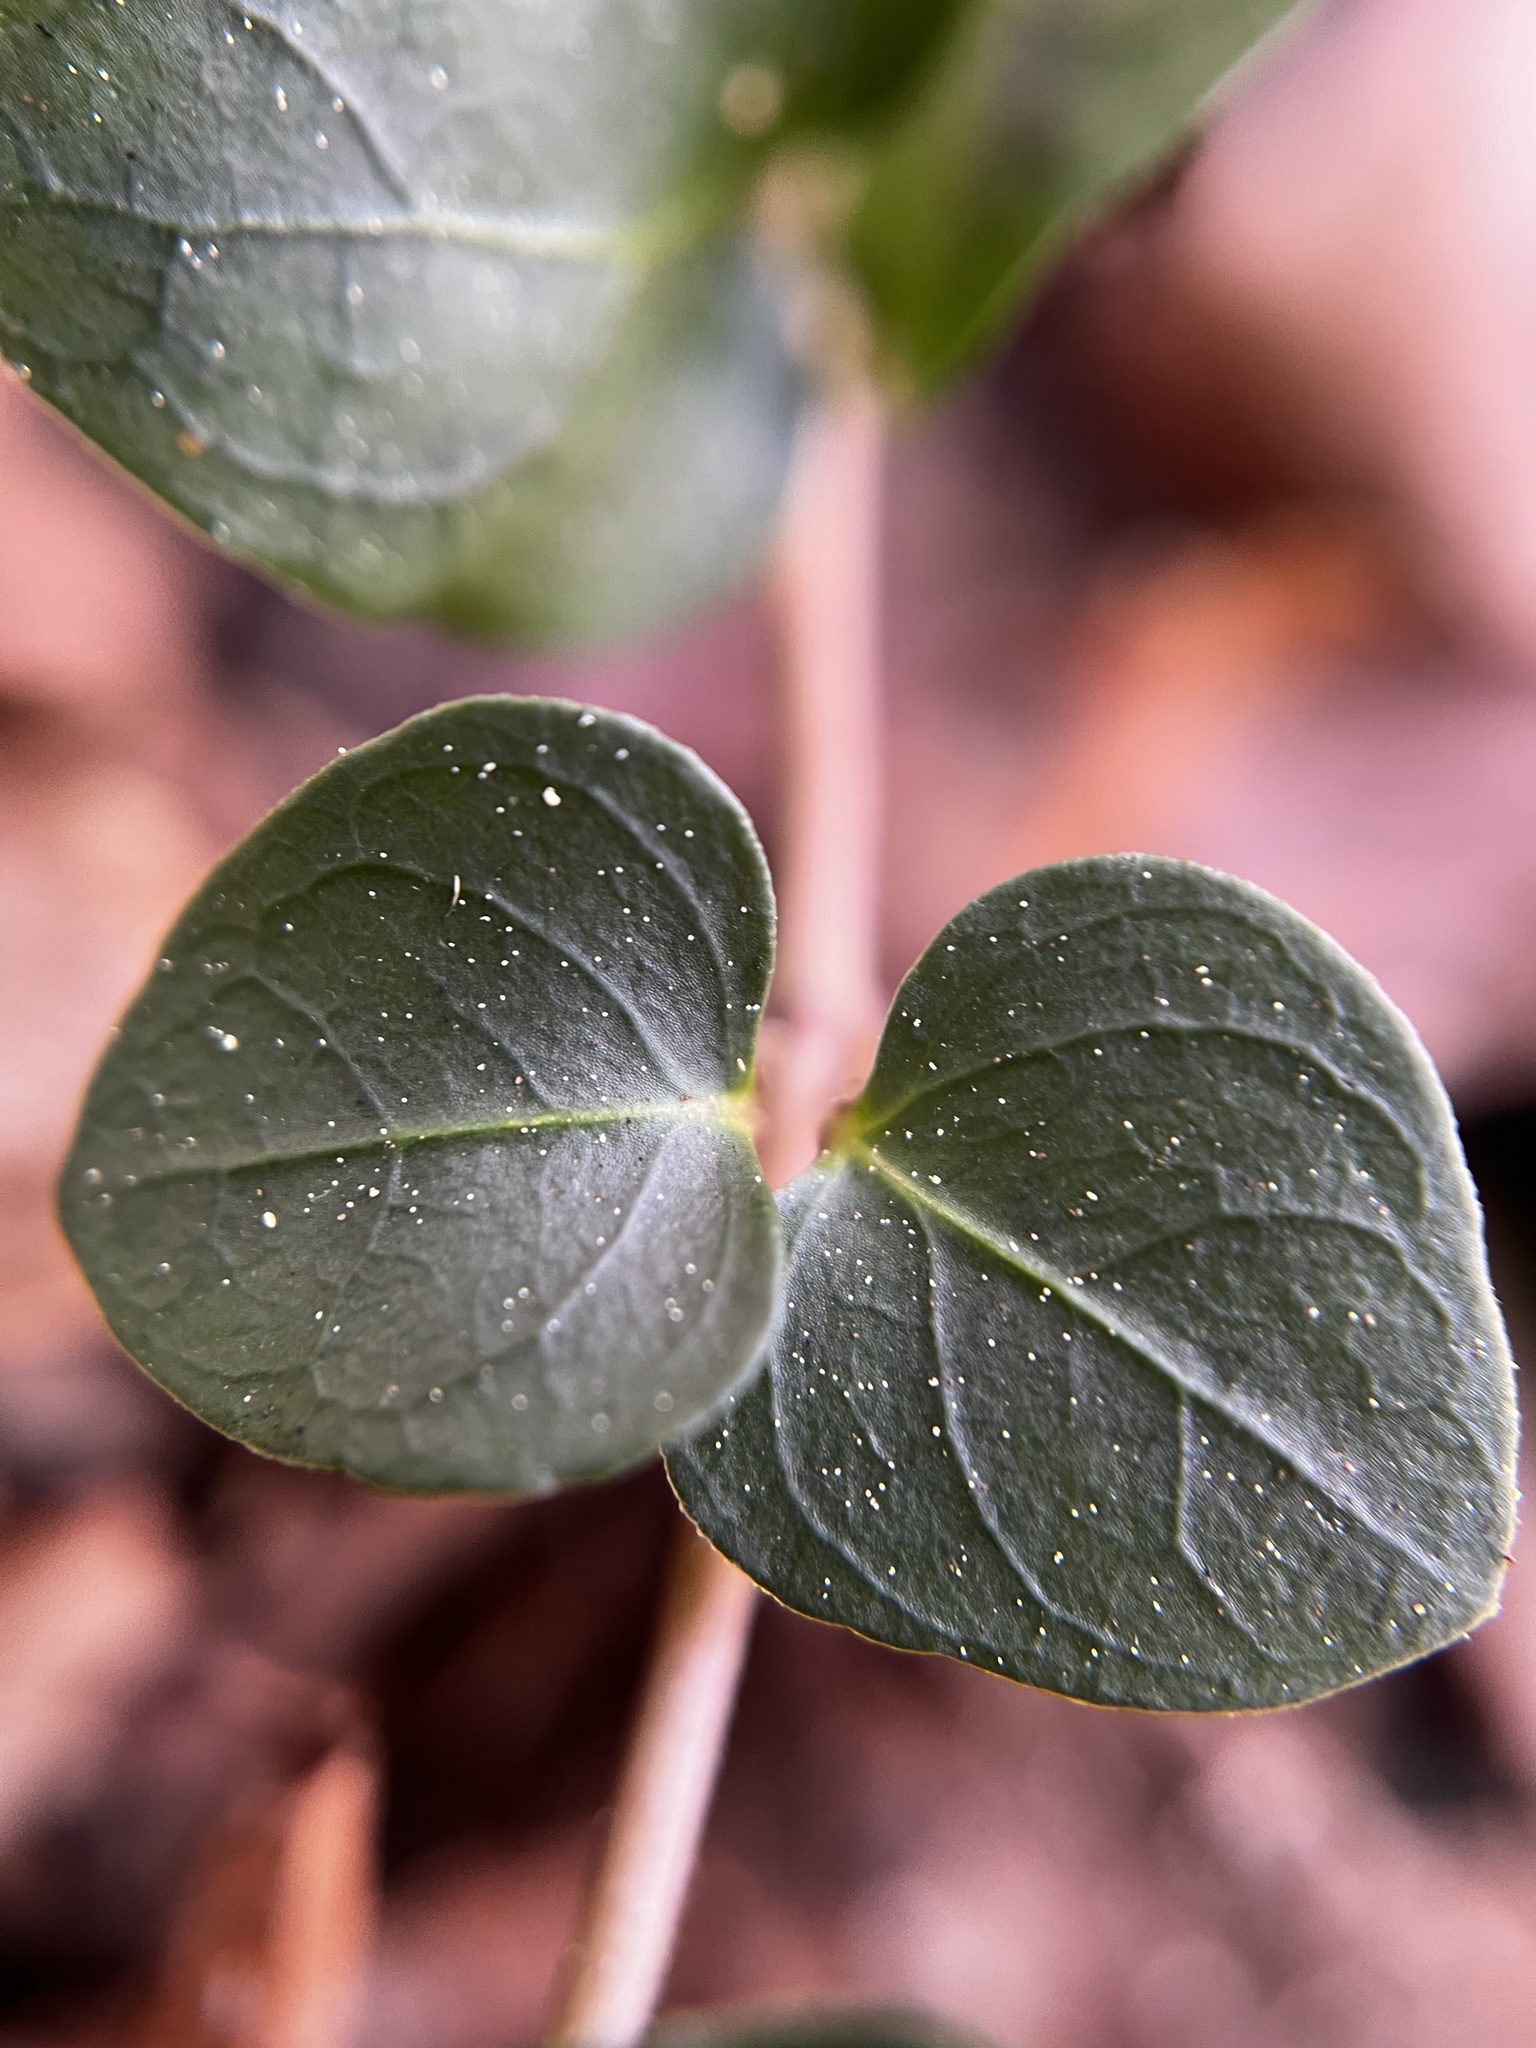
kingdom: Plantae
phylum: Tracheophyta
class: Magnoliopsida
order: Gentianales
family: Rubiaceae
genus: Mitchella
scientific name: Mitchella repens
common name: Partridge-berry
